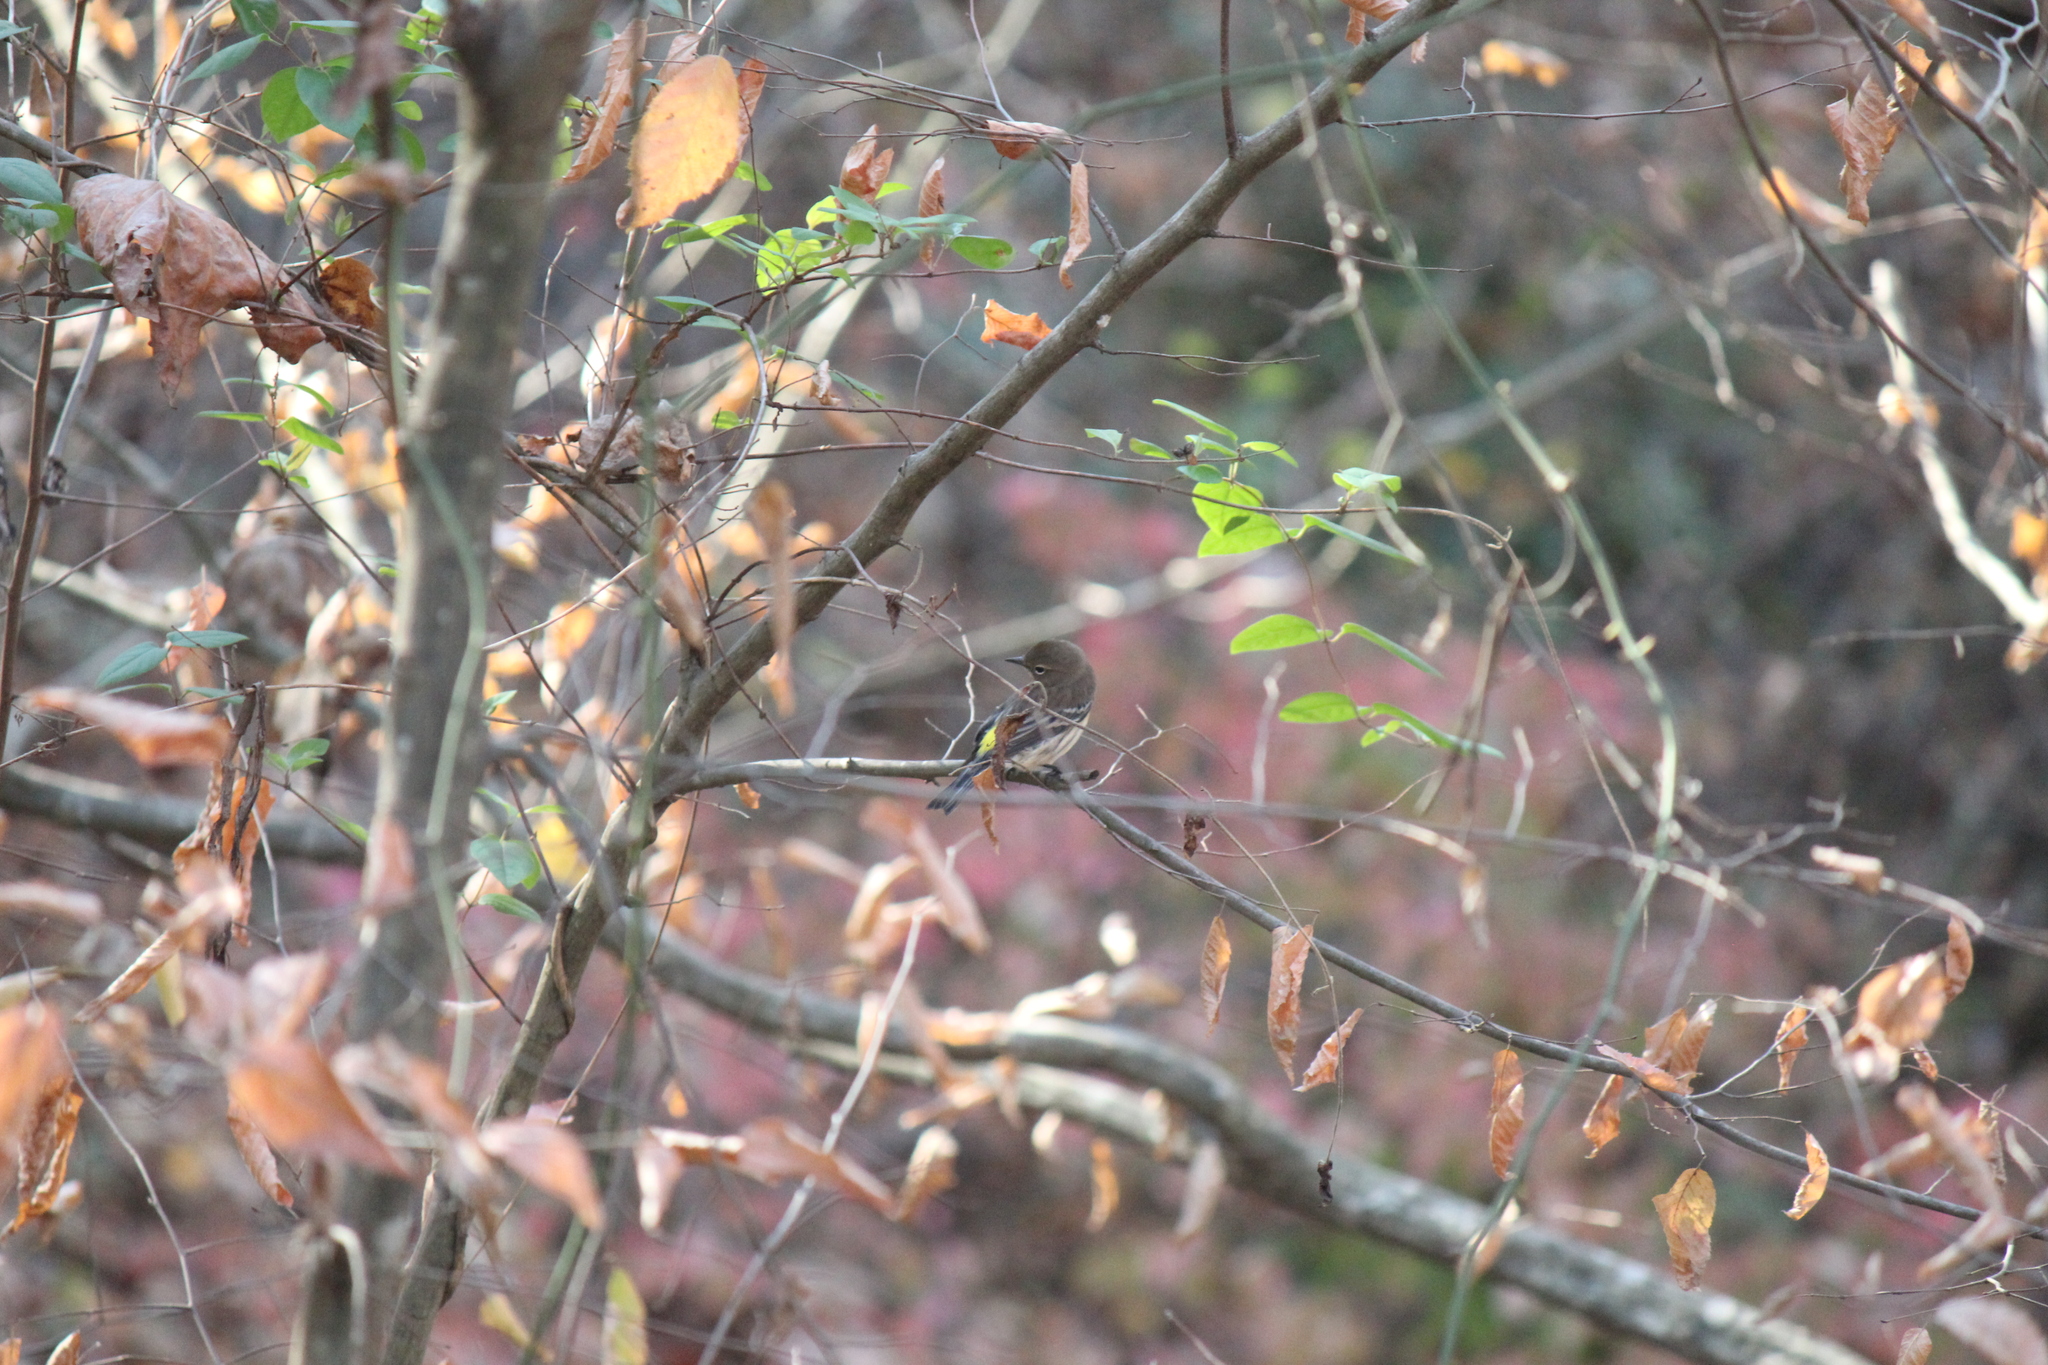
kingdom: Animalia
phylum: Chordata
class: Aves
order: Passeriformes
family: Parulidae
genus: Setophaga
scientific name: Setophaga coronata
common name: Myrtle warbler
